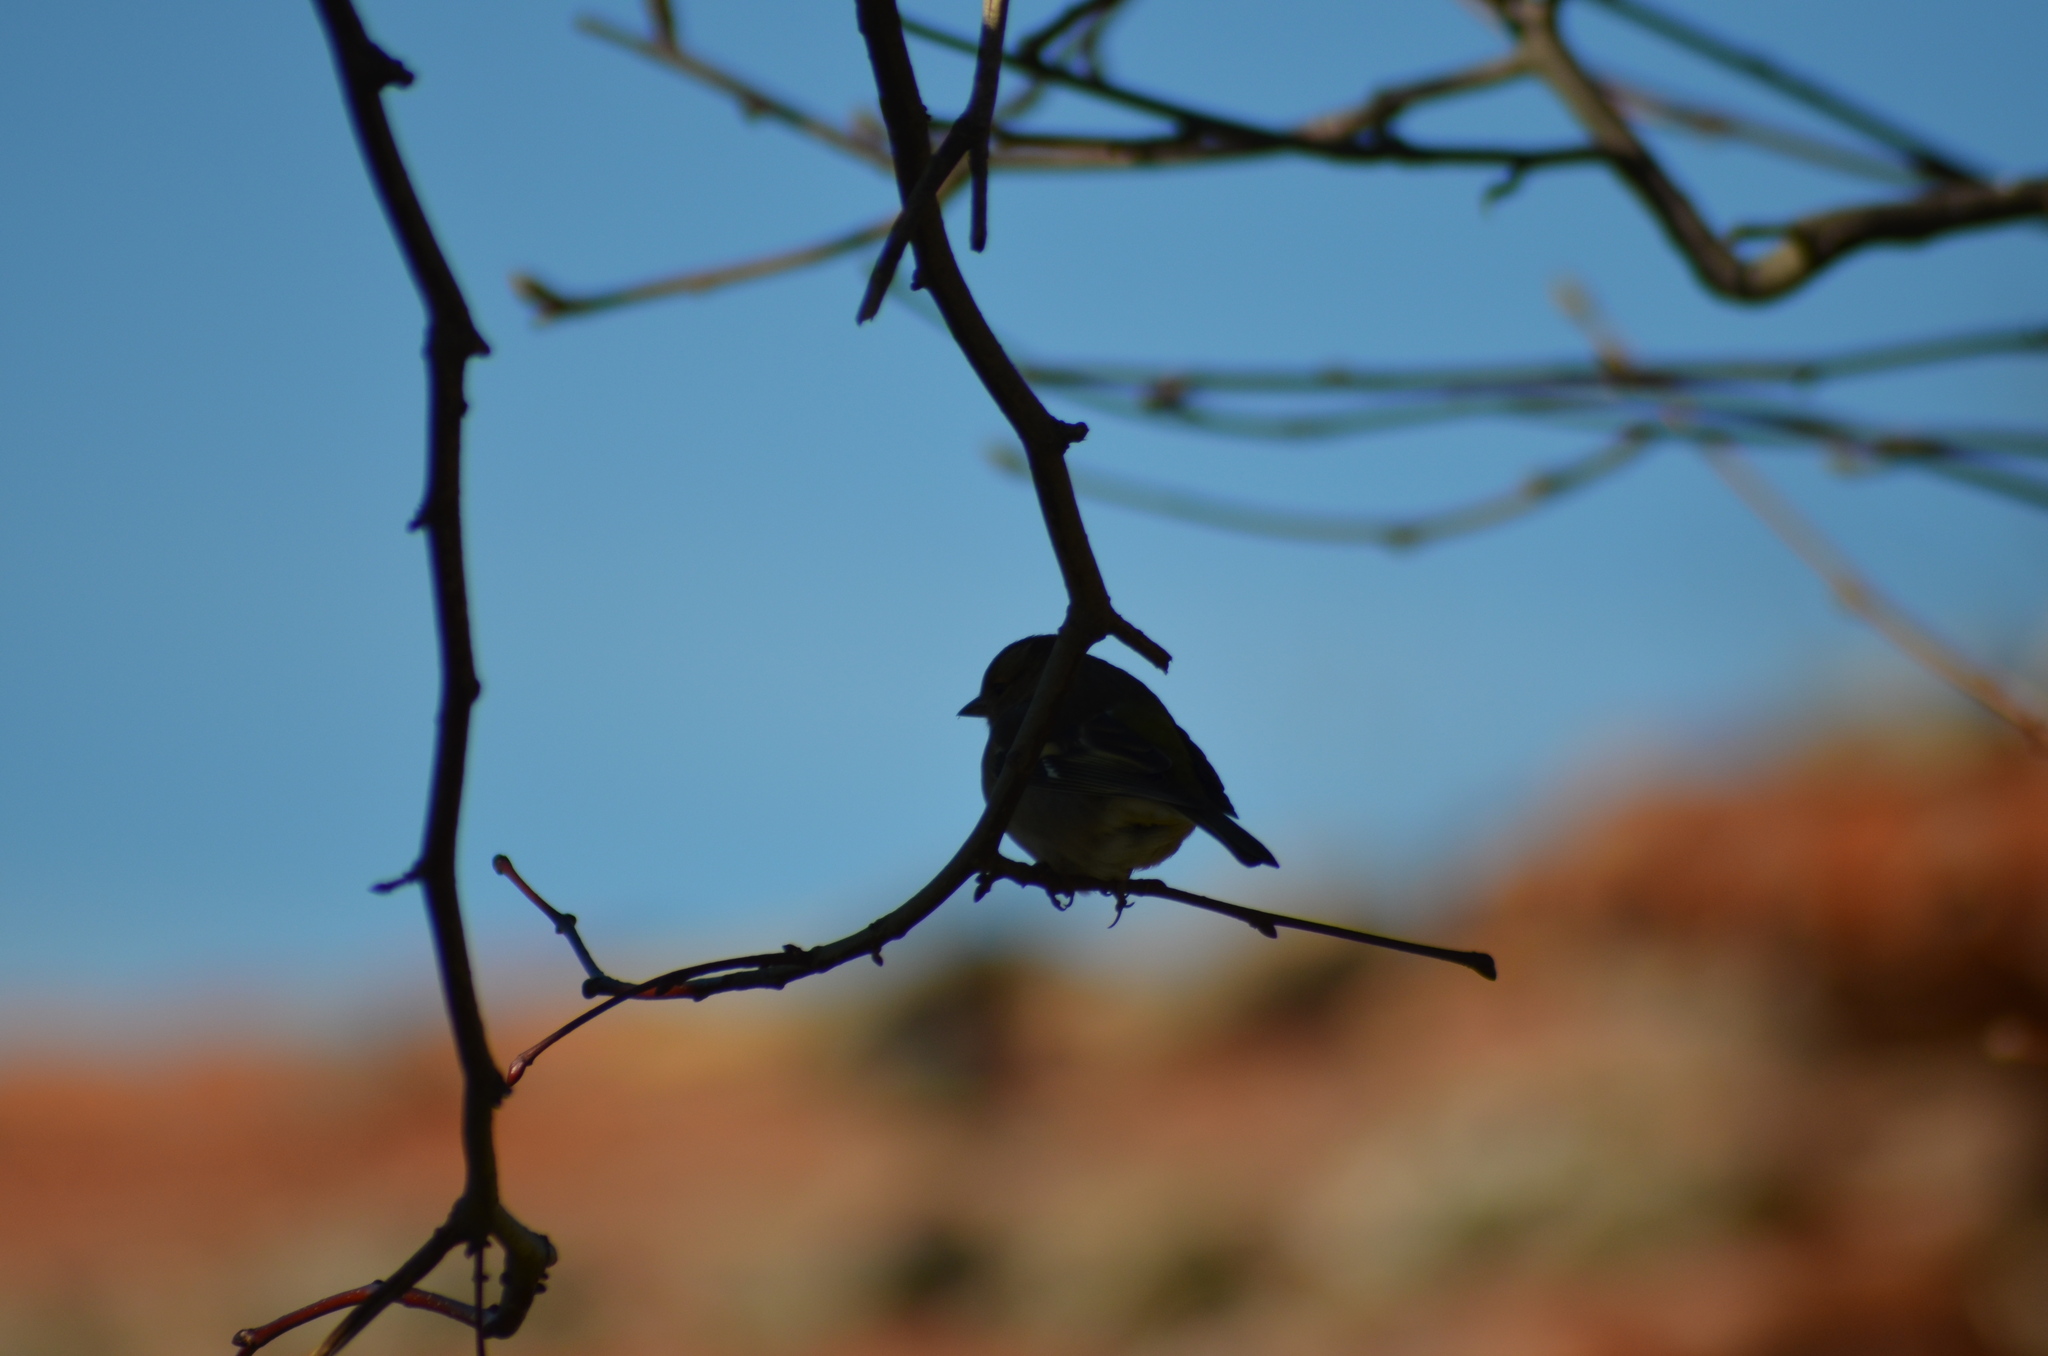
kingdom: Animalia
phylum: Chordata
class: Aves
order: Passeriformes
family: Fringillidae
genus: Fringilla
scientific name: Fringilla coelebs
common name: Common chaffinch
